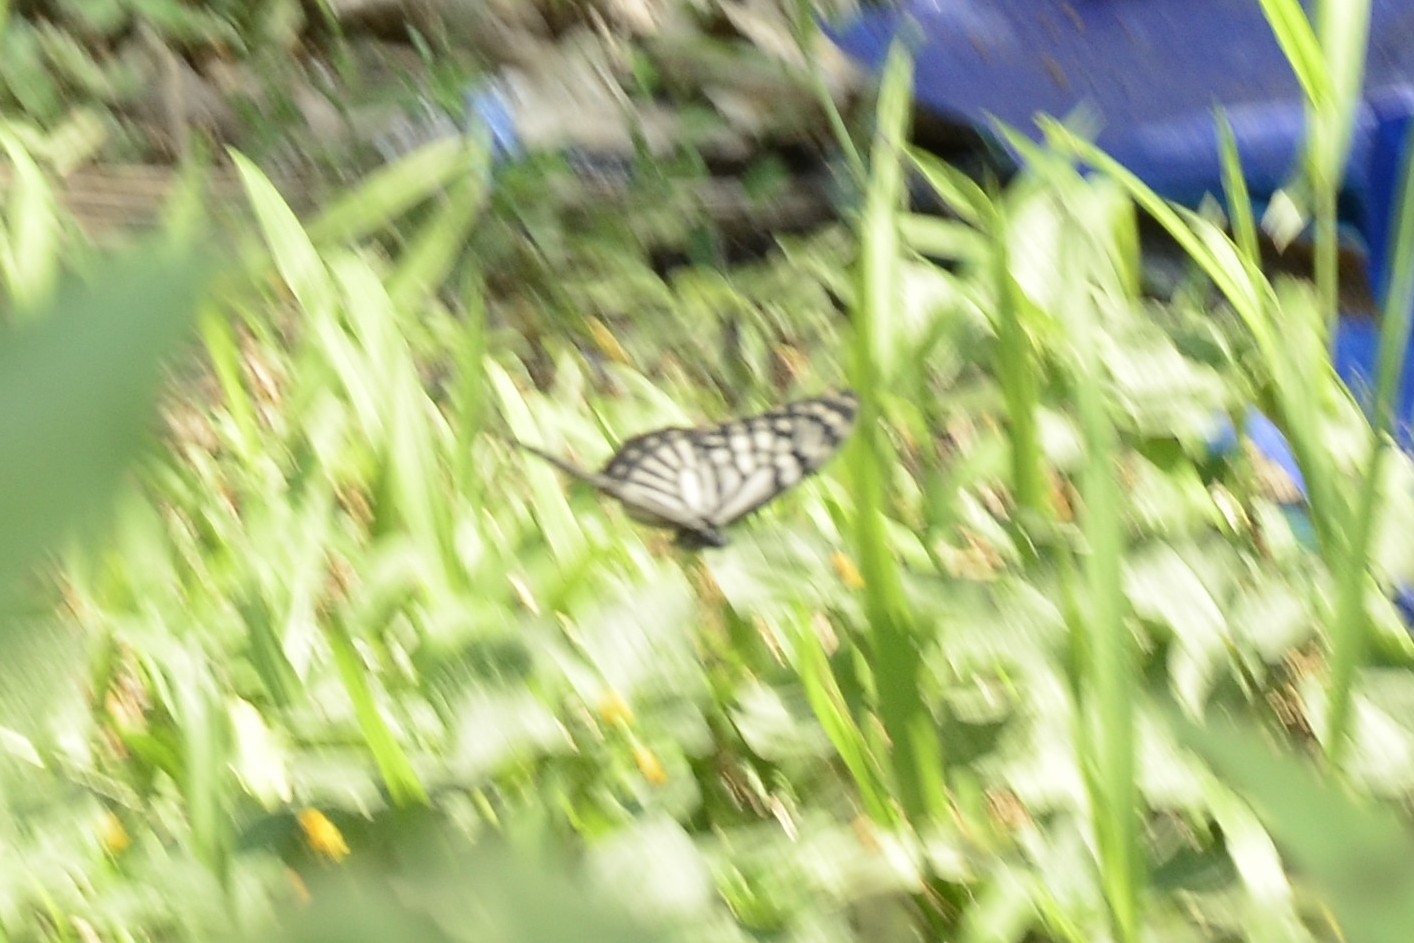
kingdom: Animalia
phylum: Arthropoda
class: Insecta
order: Lepidoptera
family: Papilionidae
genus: Chilasa
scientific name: Chilasa clytia
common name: Common mime
